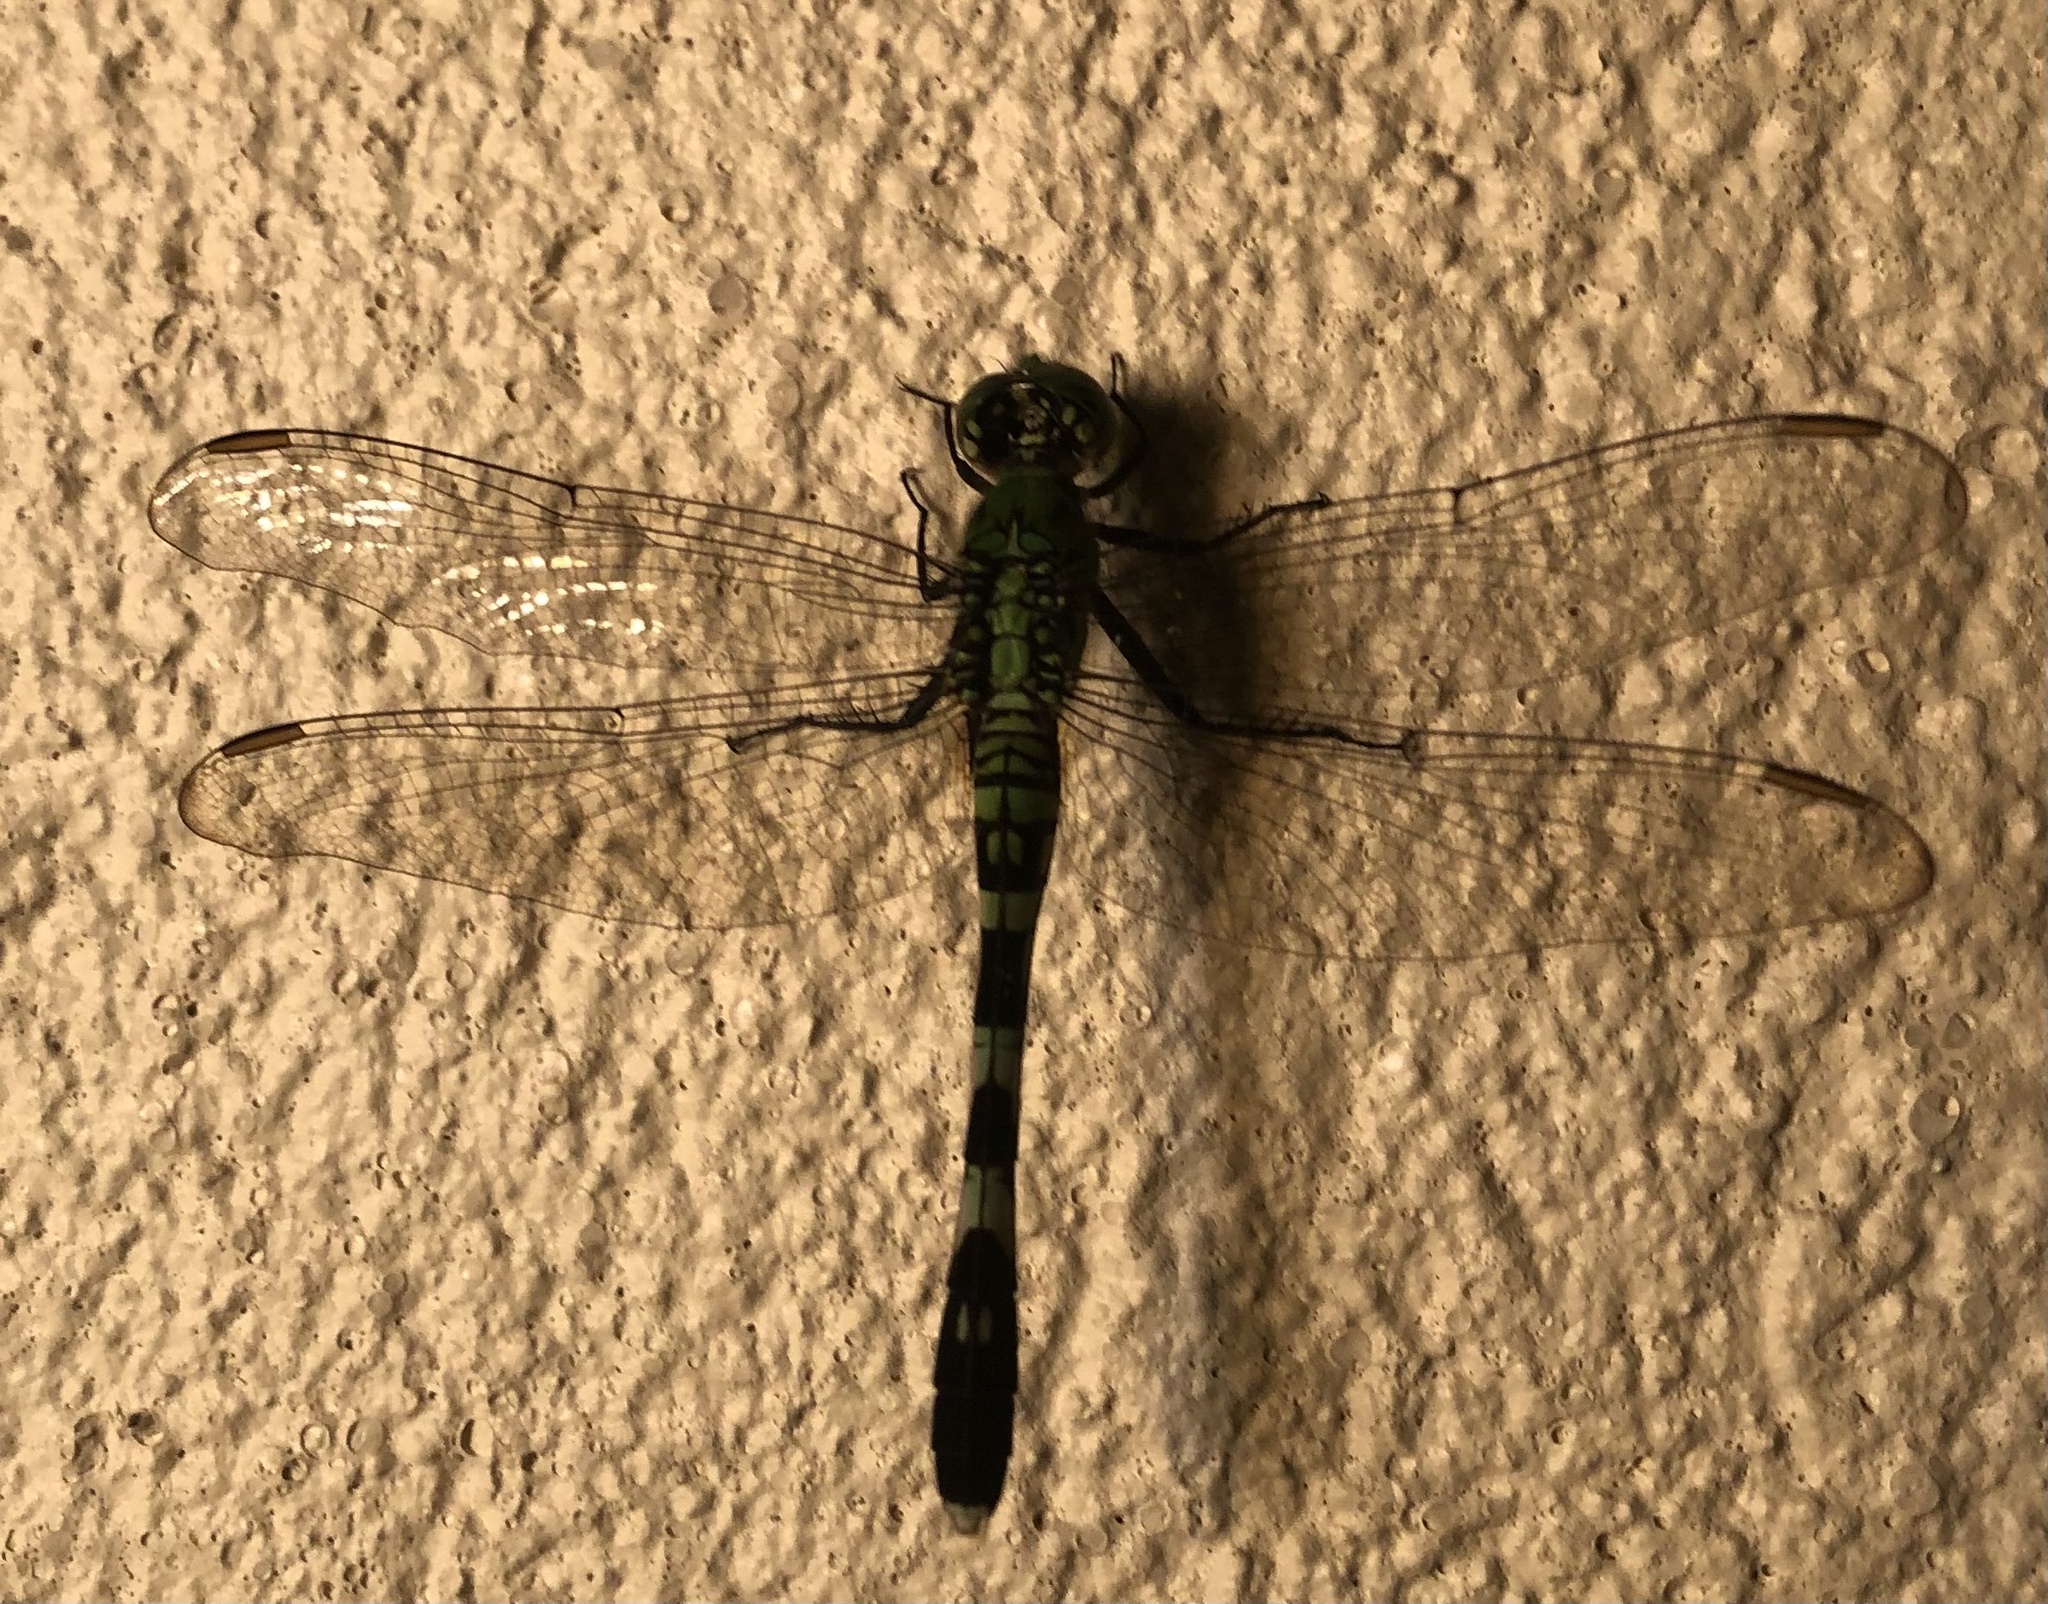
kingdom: Animalia
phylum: Arthropoda
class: Insecta
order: Odonata
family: Libellulidae
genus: Erythemis
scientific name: Erythemis simplicicollis
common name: Eastern pondhawk
